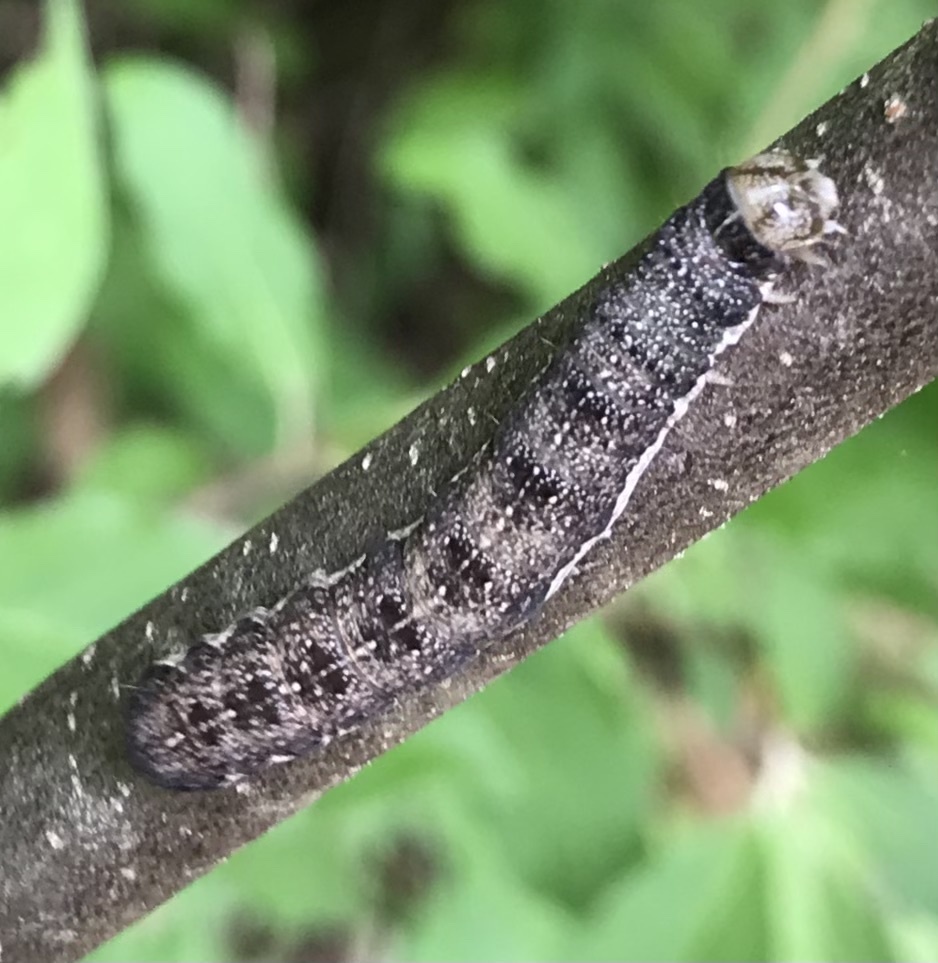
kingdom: Animalia
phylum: Arthropoda
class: Insecta
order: Lepidoptera
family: Noctuidae
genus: Orthosia
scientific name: Orthosia rubescens
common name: Ruby quaker
